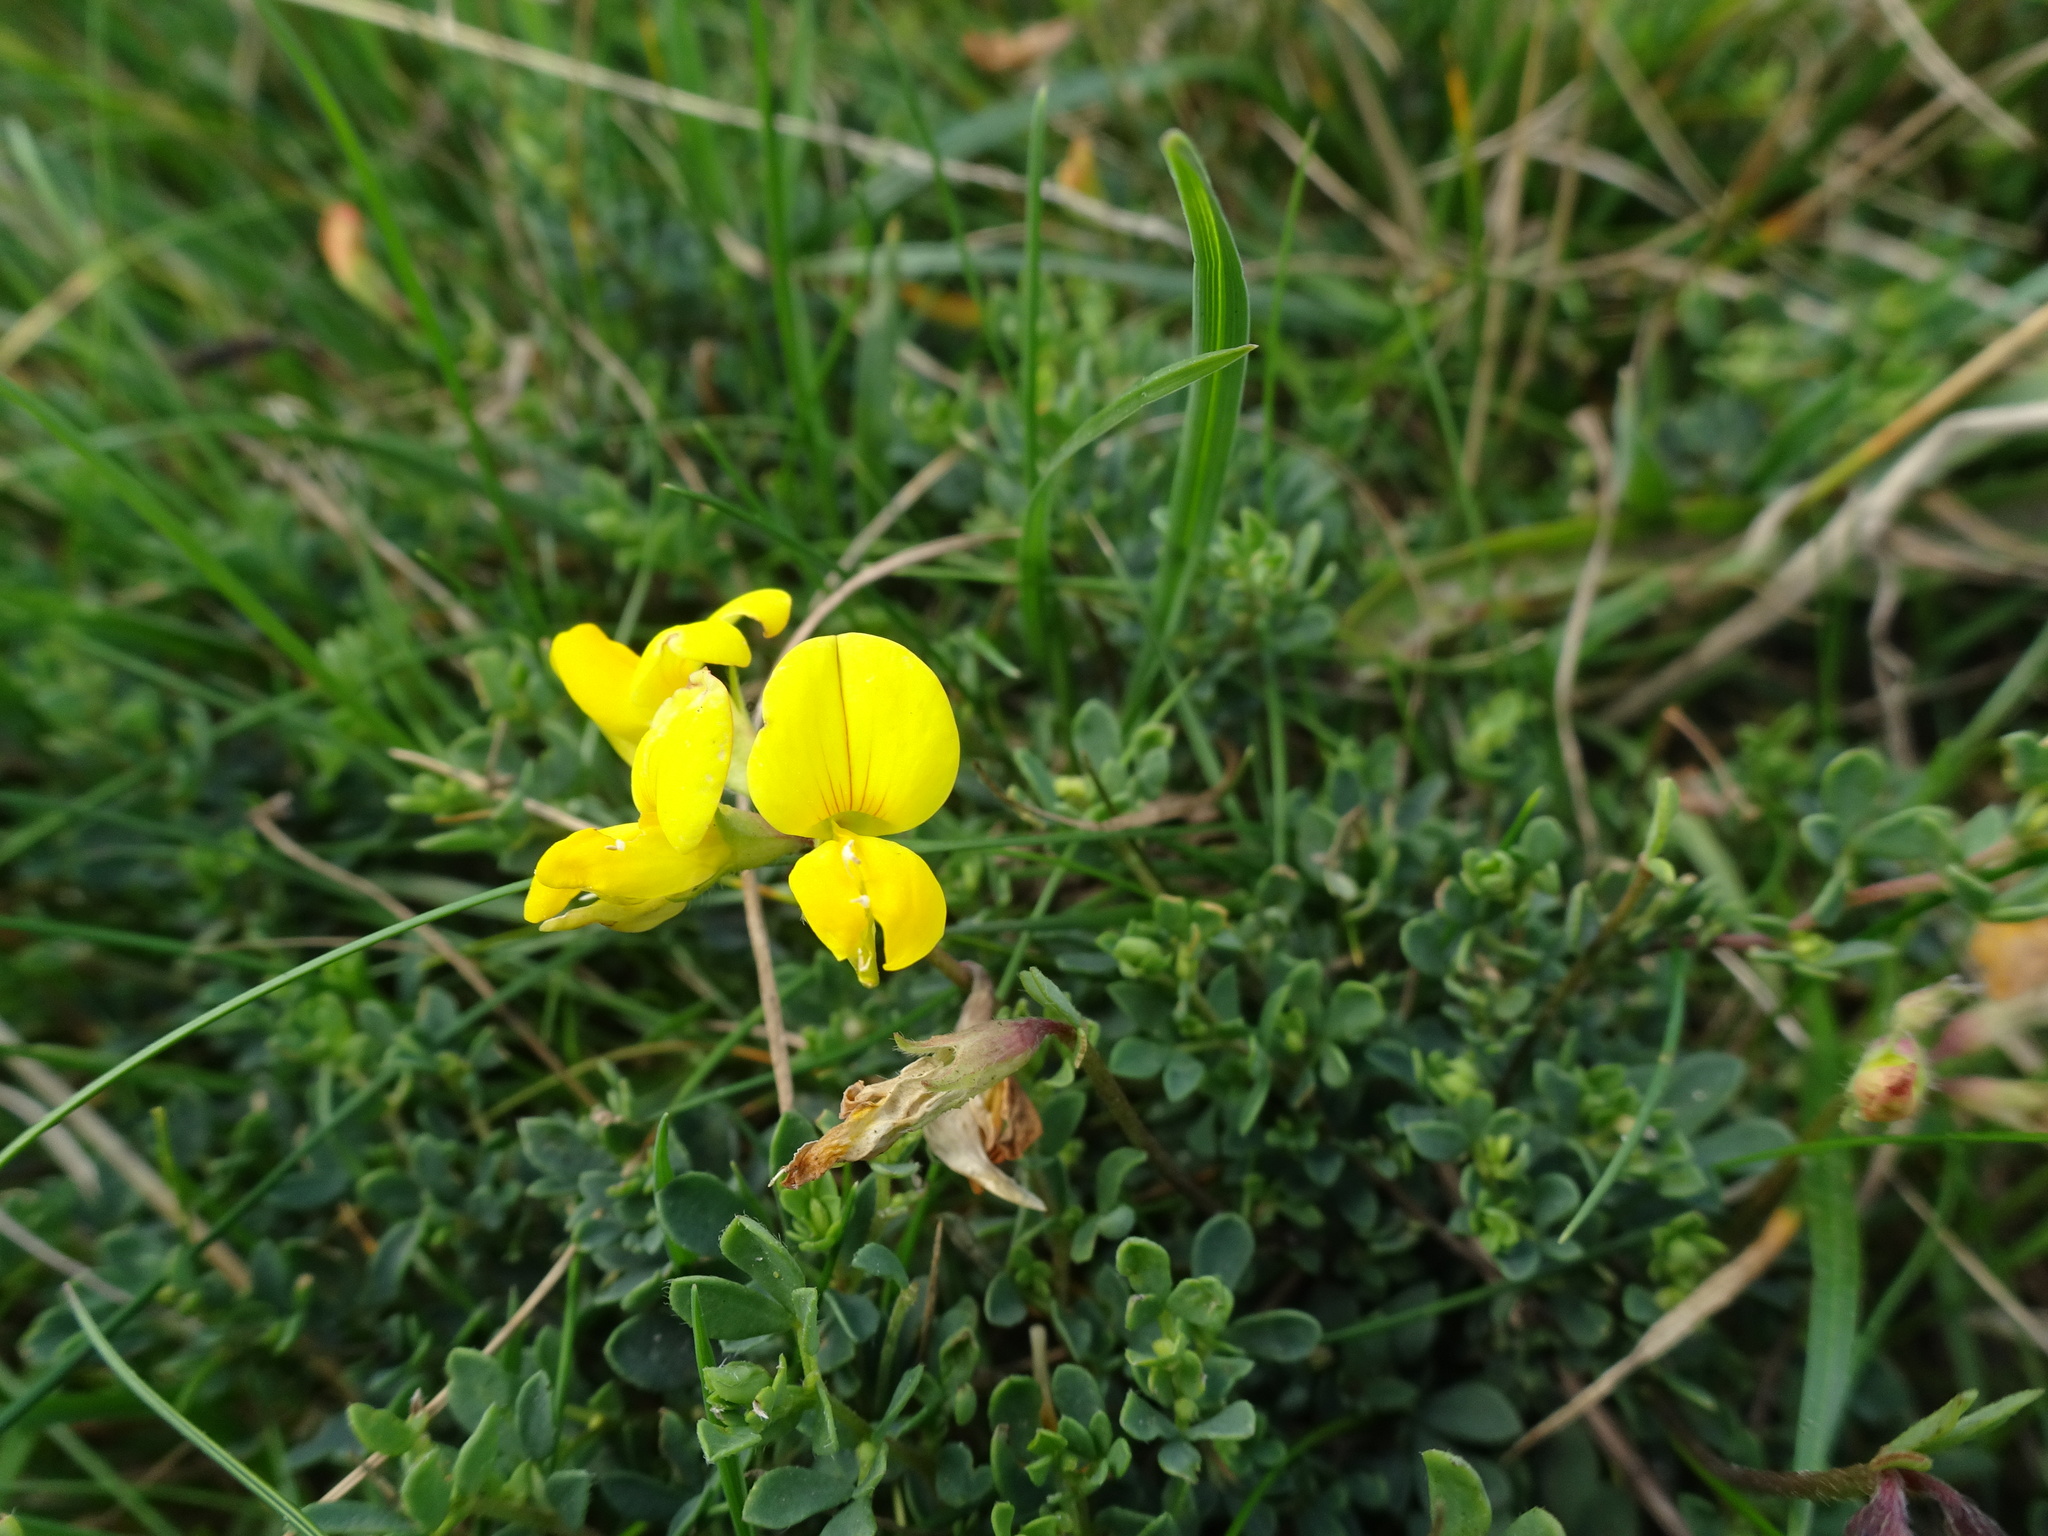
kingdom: Plantae
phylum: Tracheophyta
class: Magnoliopsida
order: Fabales
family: Fabaceae
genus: Lotus
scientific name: Lotus corniculatus
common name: Common bird's-foot-trefoil
